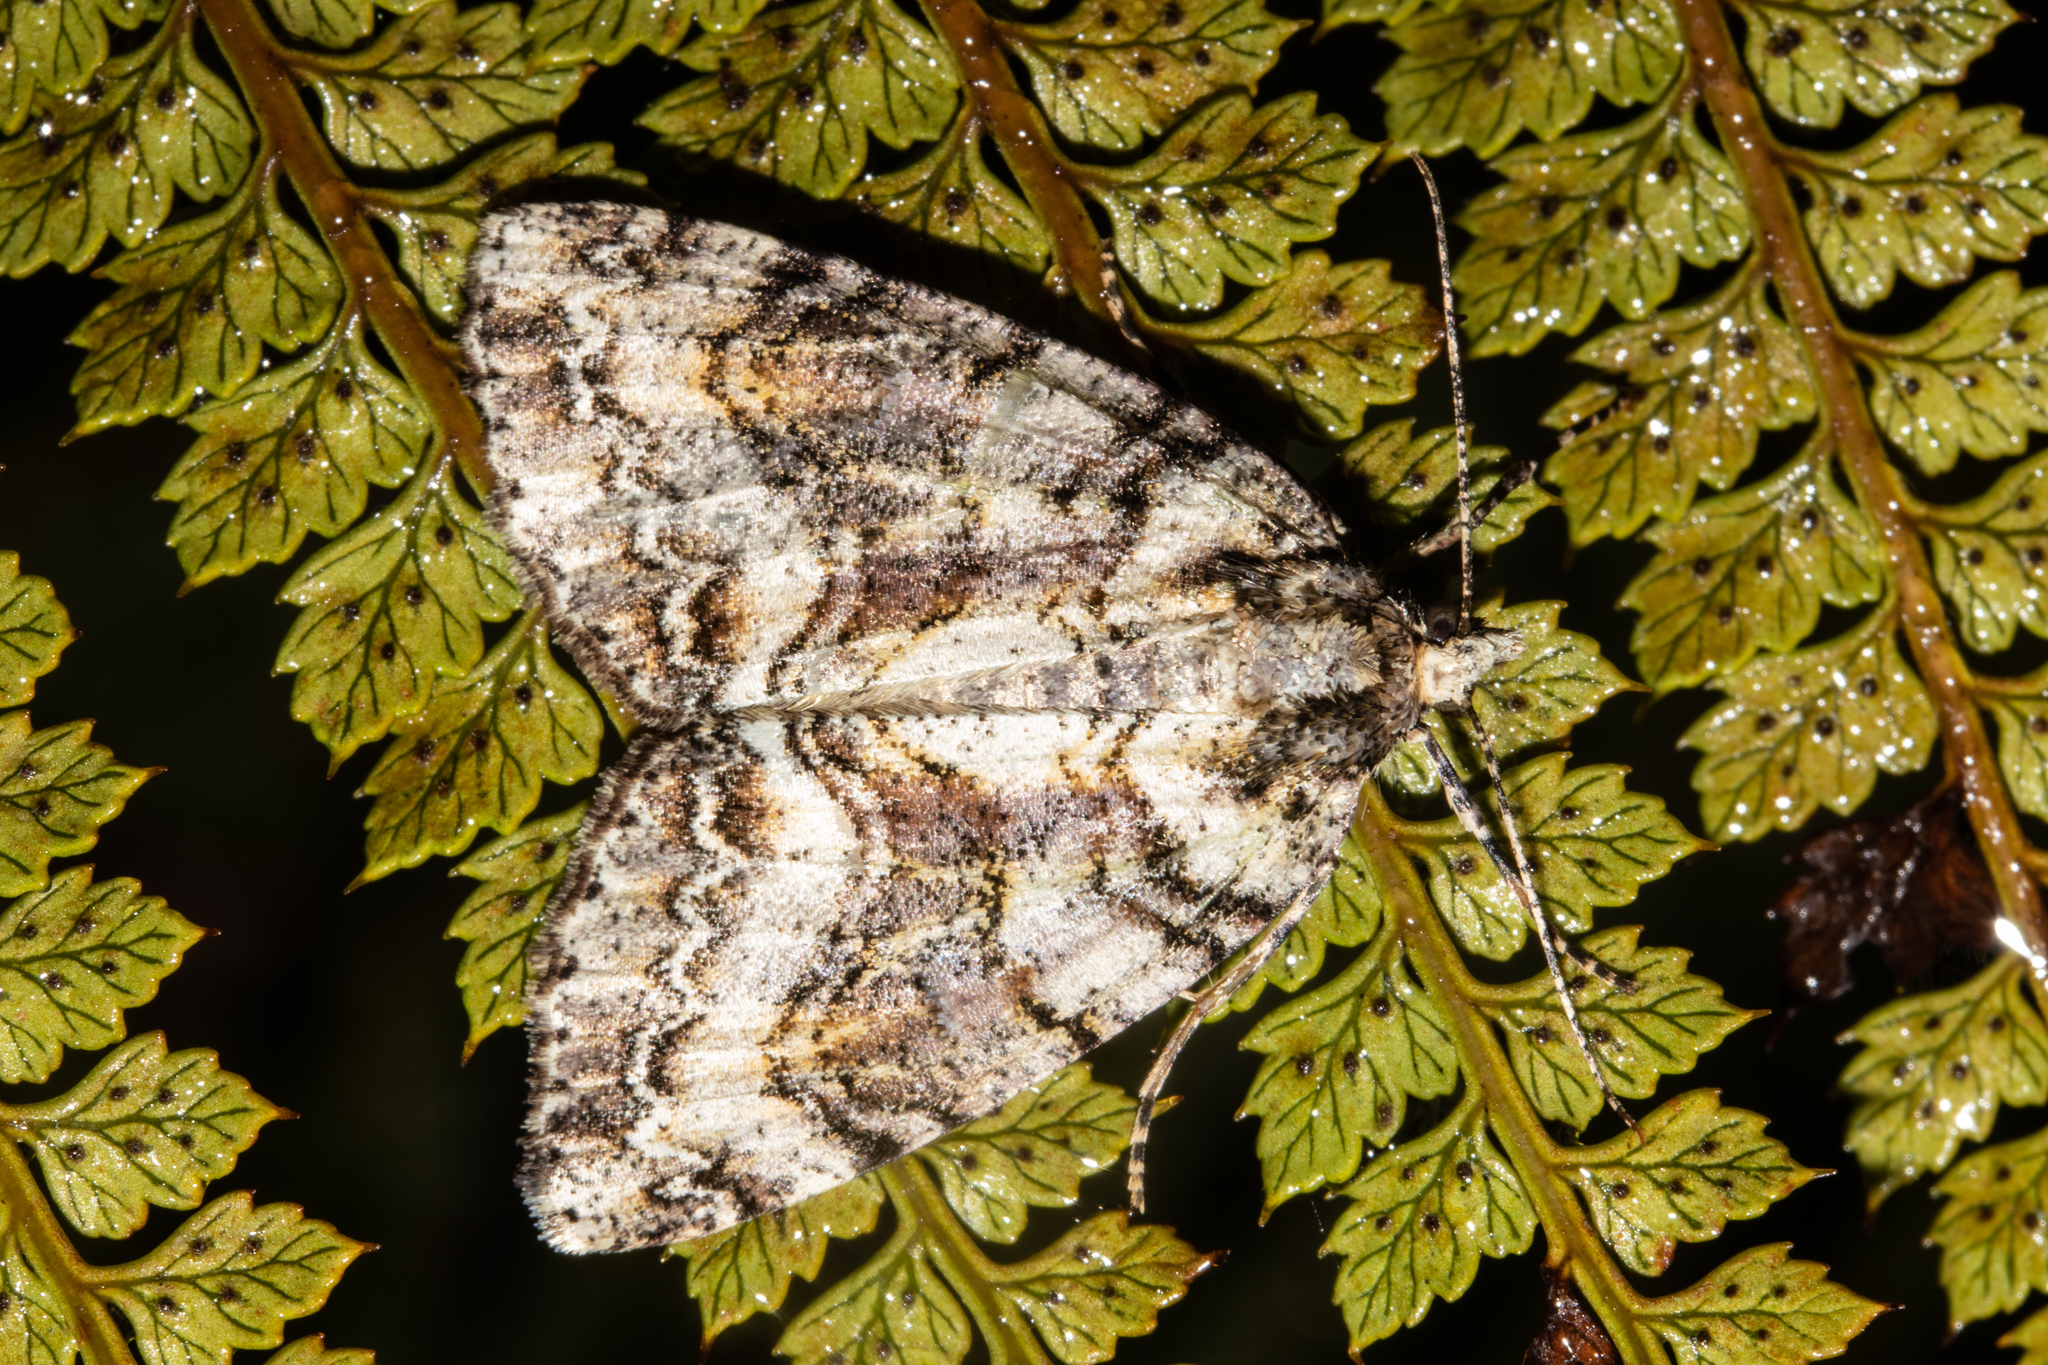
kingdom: Animalia
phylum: Arthropoda
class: Insecta
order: Lepidoptera
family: Geometridae
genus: Pseudocoremia
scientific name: Pseudocoremia suavis
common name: Common forest looper
